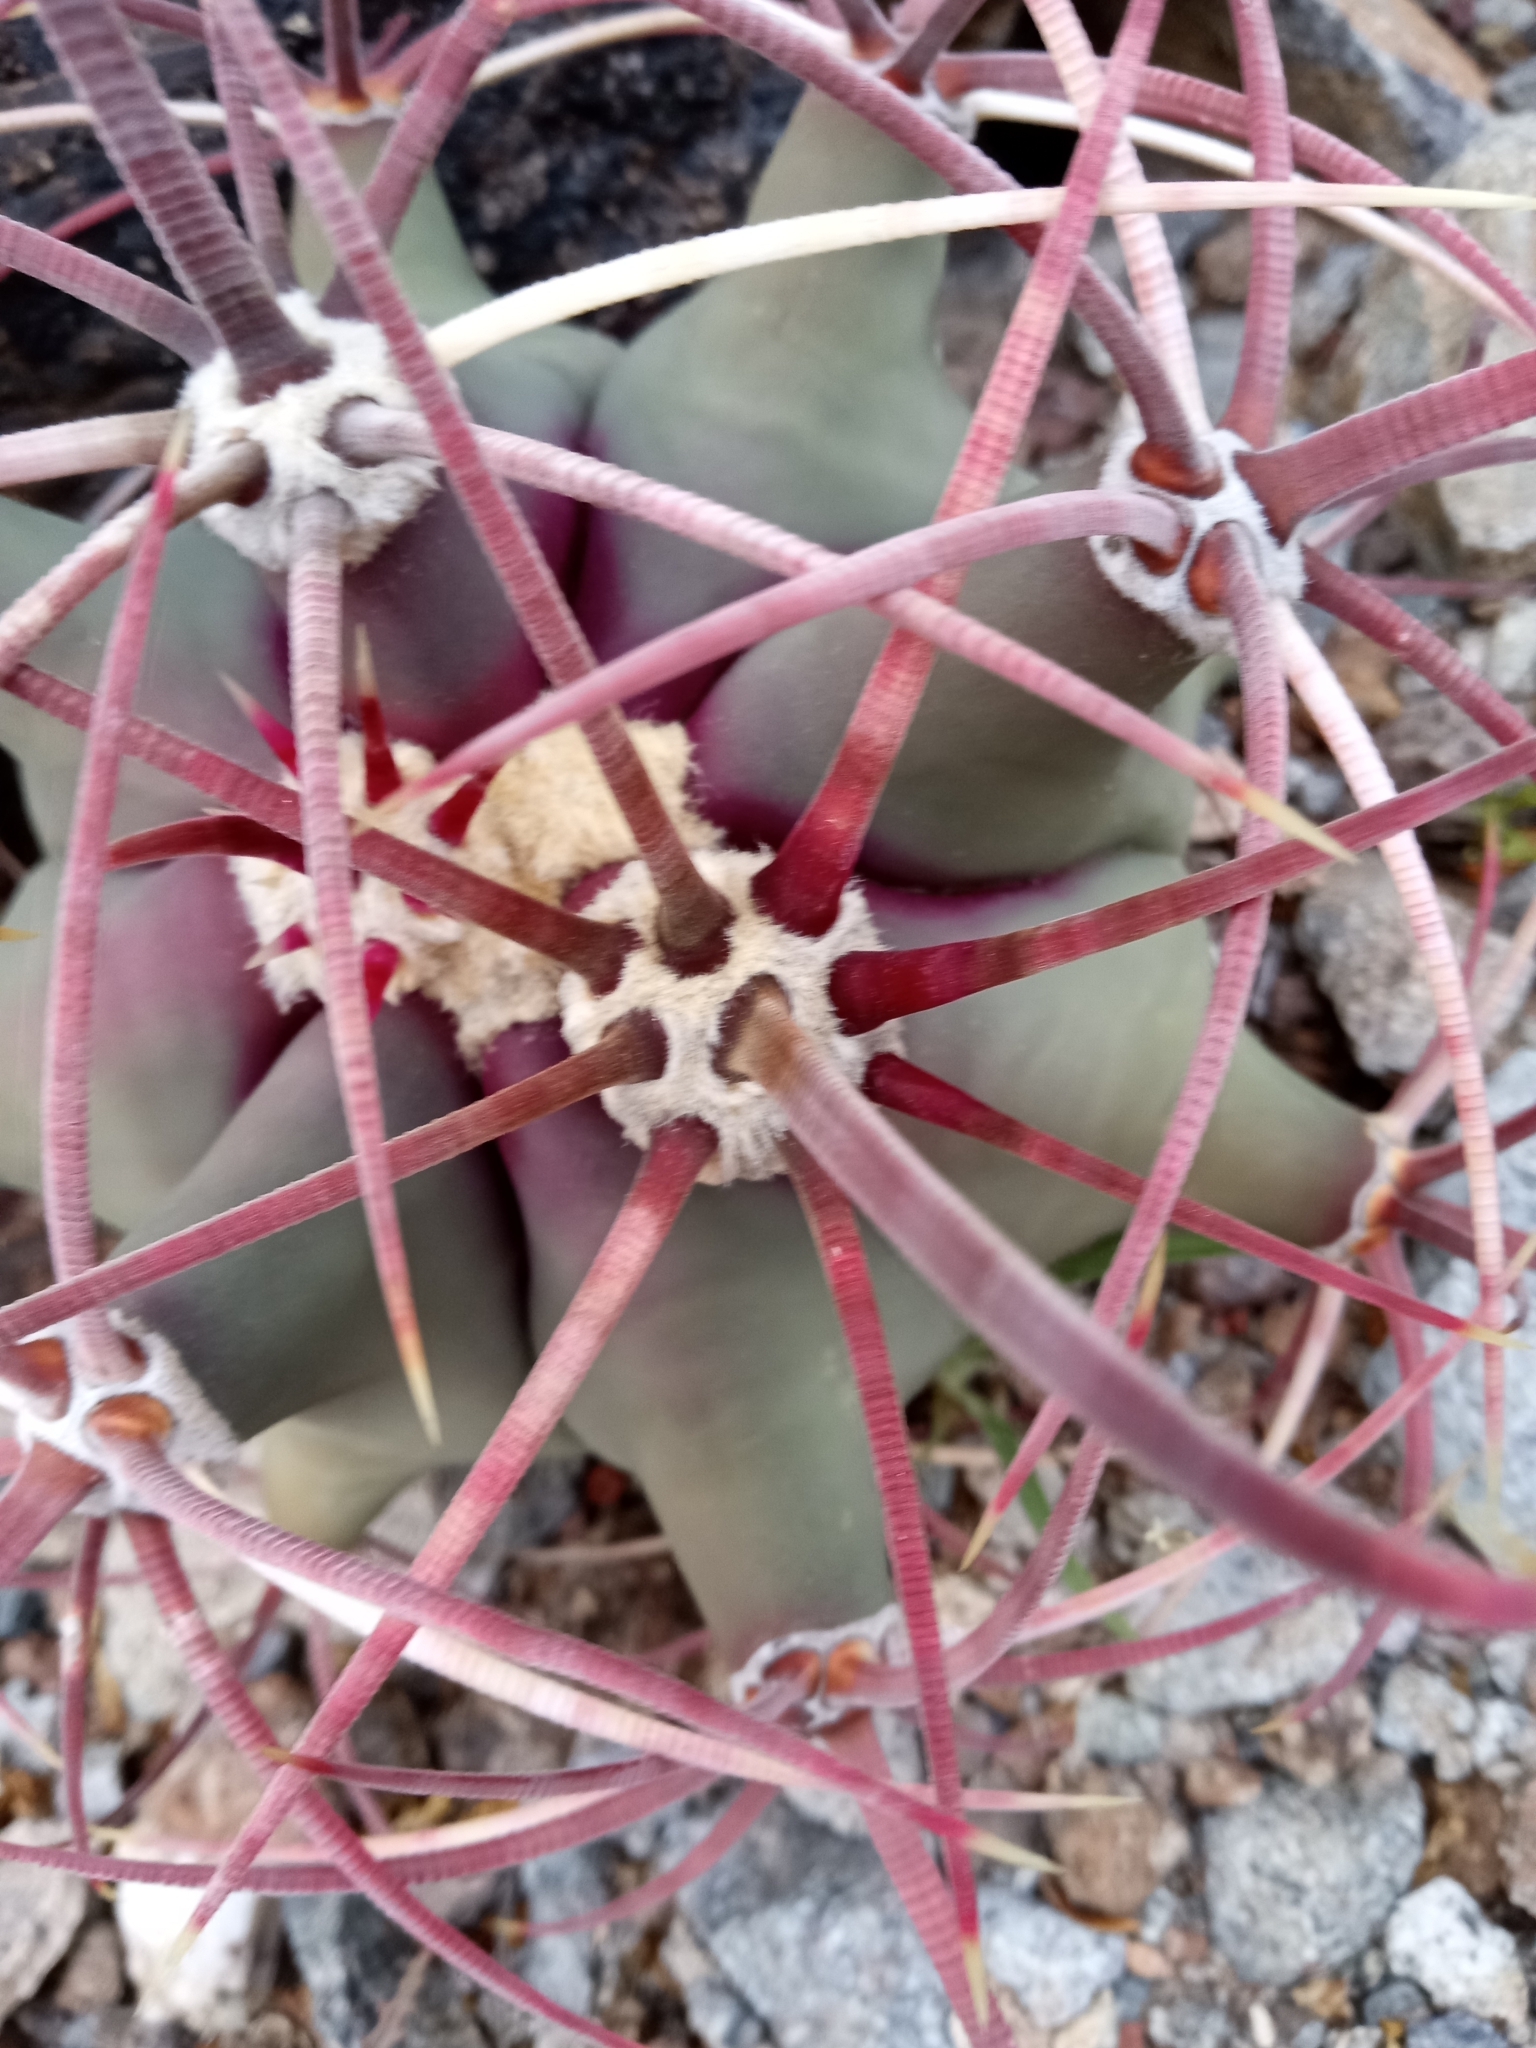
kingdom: Plantae
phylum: Tracheophyta
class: Magnoliopsida
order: Caryophyllales
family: Cactaceae
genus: Ferocactus
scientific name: Ferocactus emoryi
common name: Emory's barrel cactus
